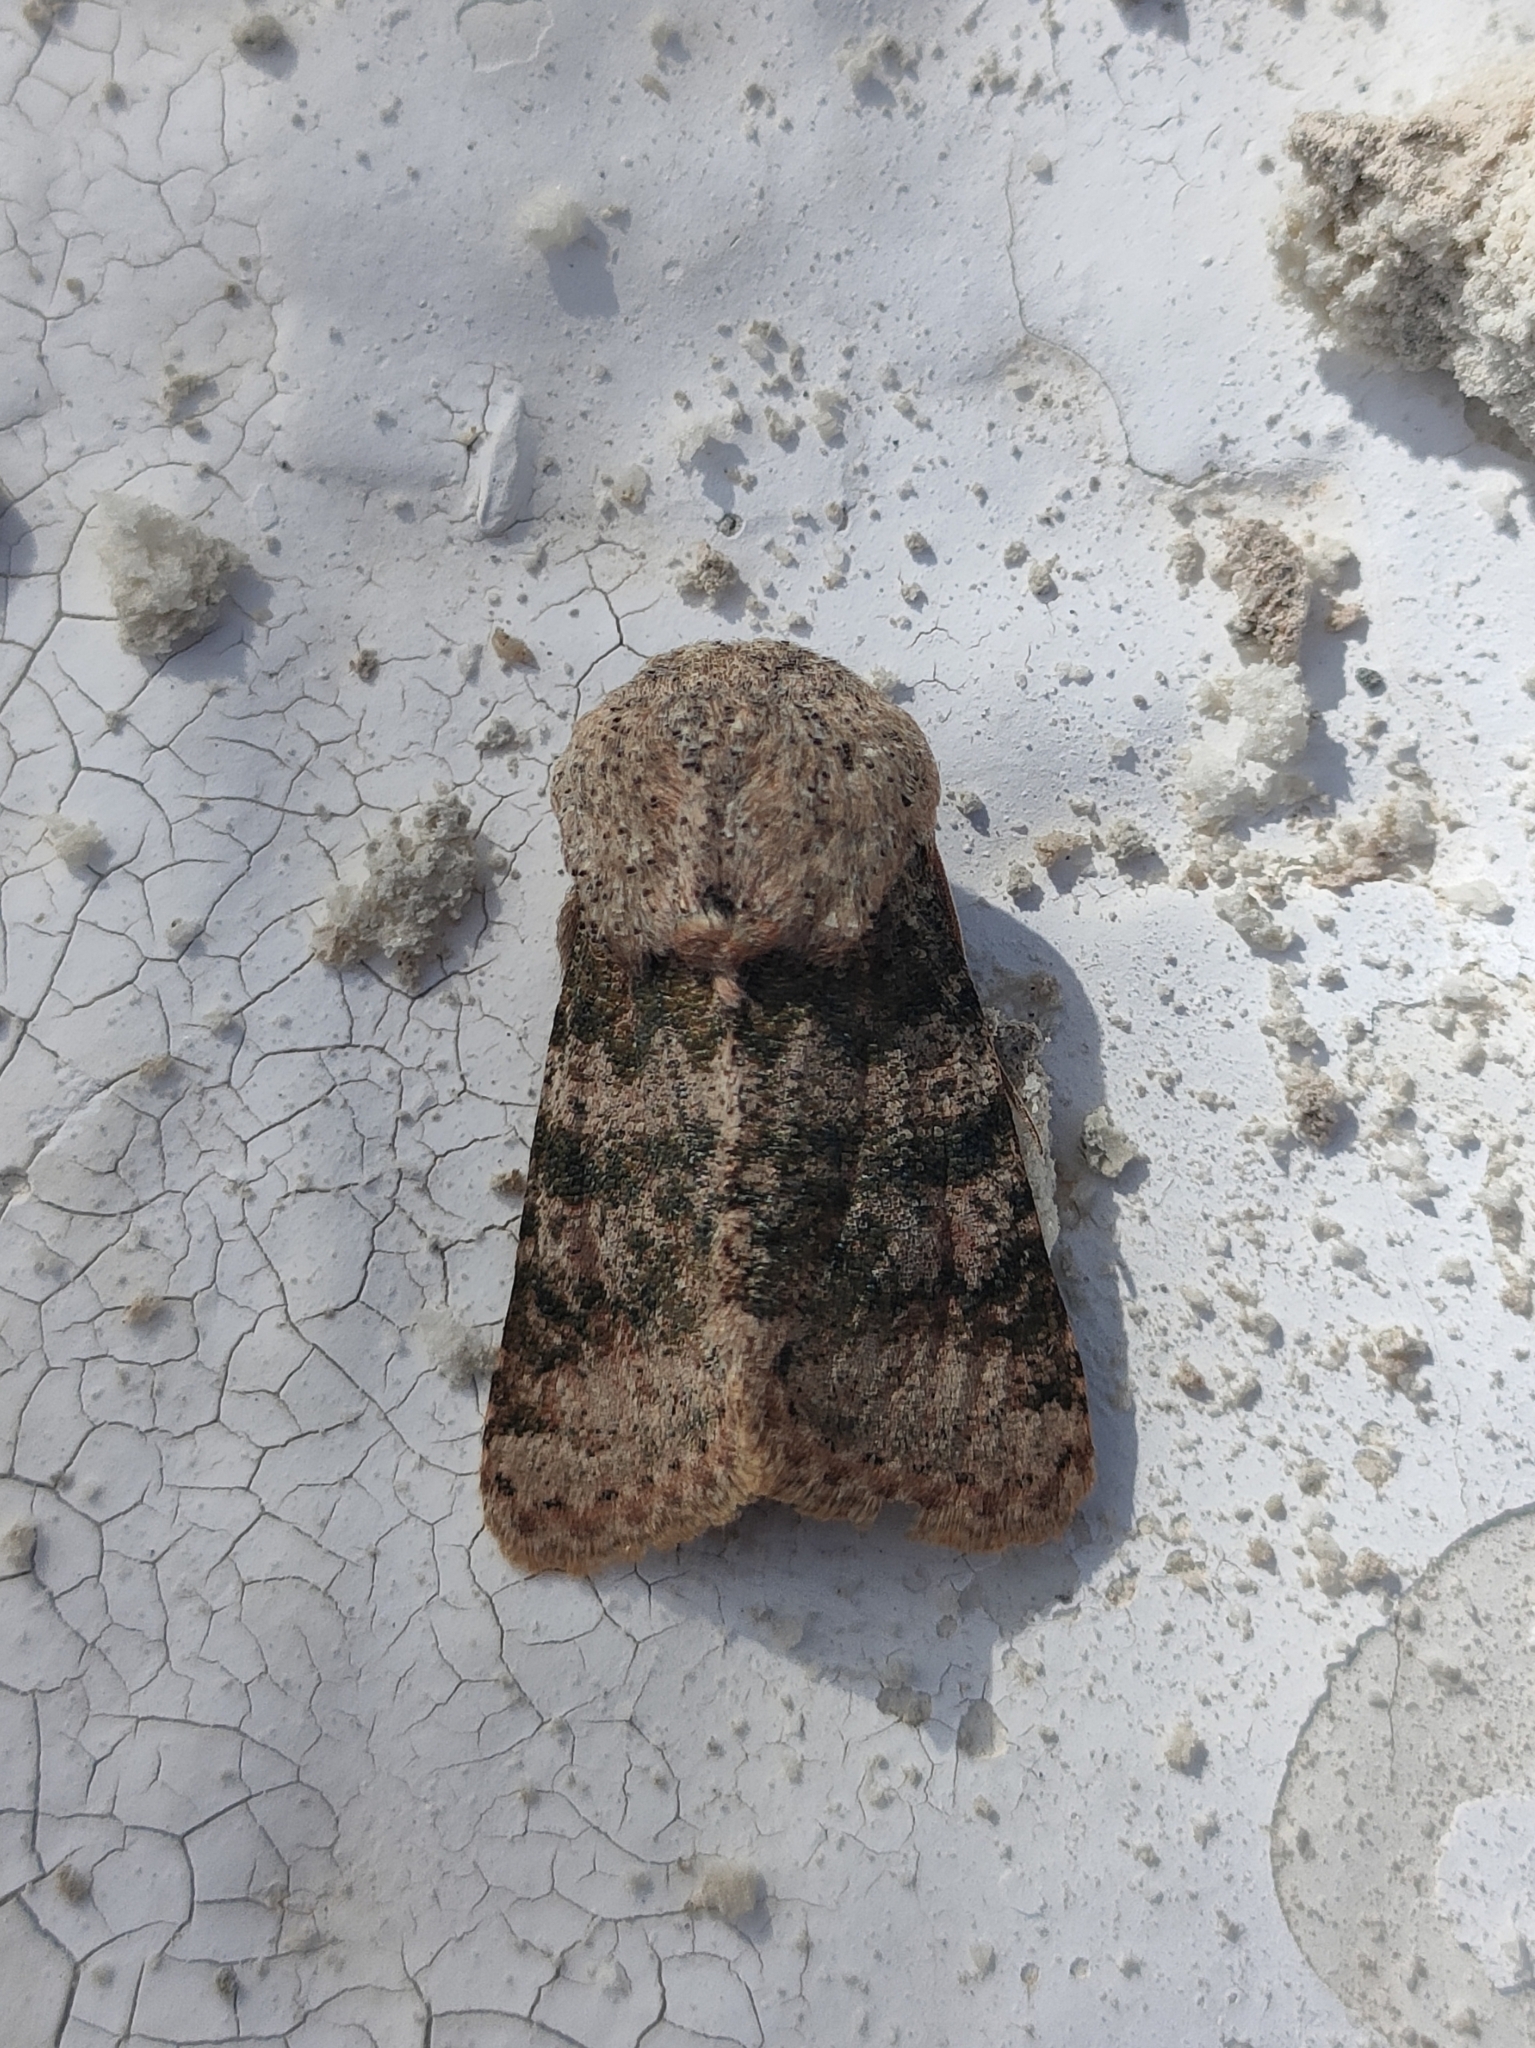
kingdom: Animalia
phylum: Arthropoda
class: Insecta
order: Lepidoptera
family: Noctuidae
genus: Metopoceras
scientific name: Metopoceras khalildja
